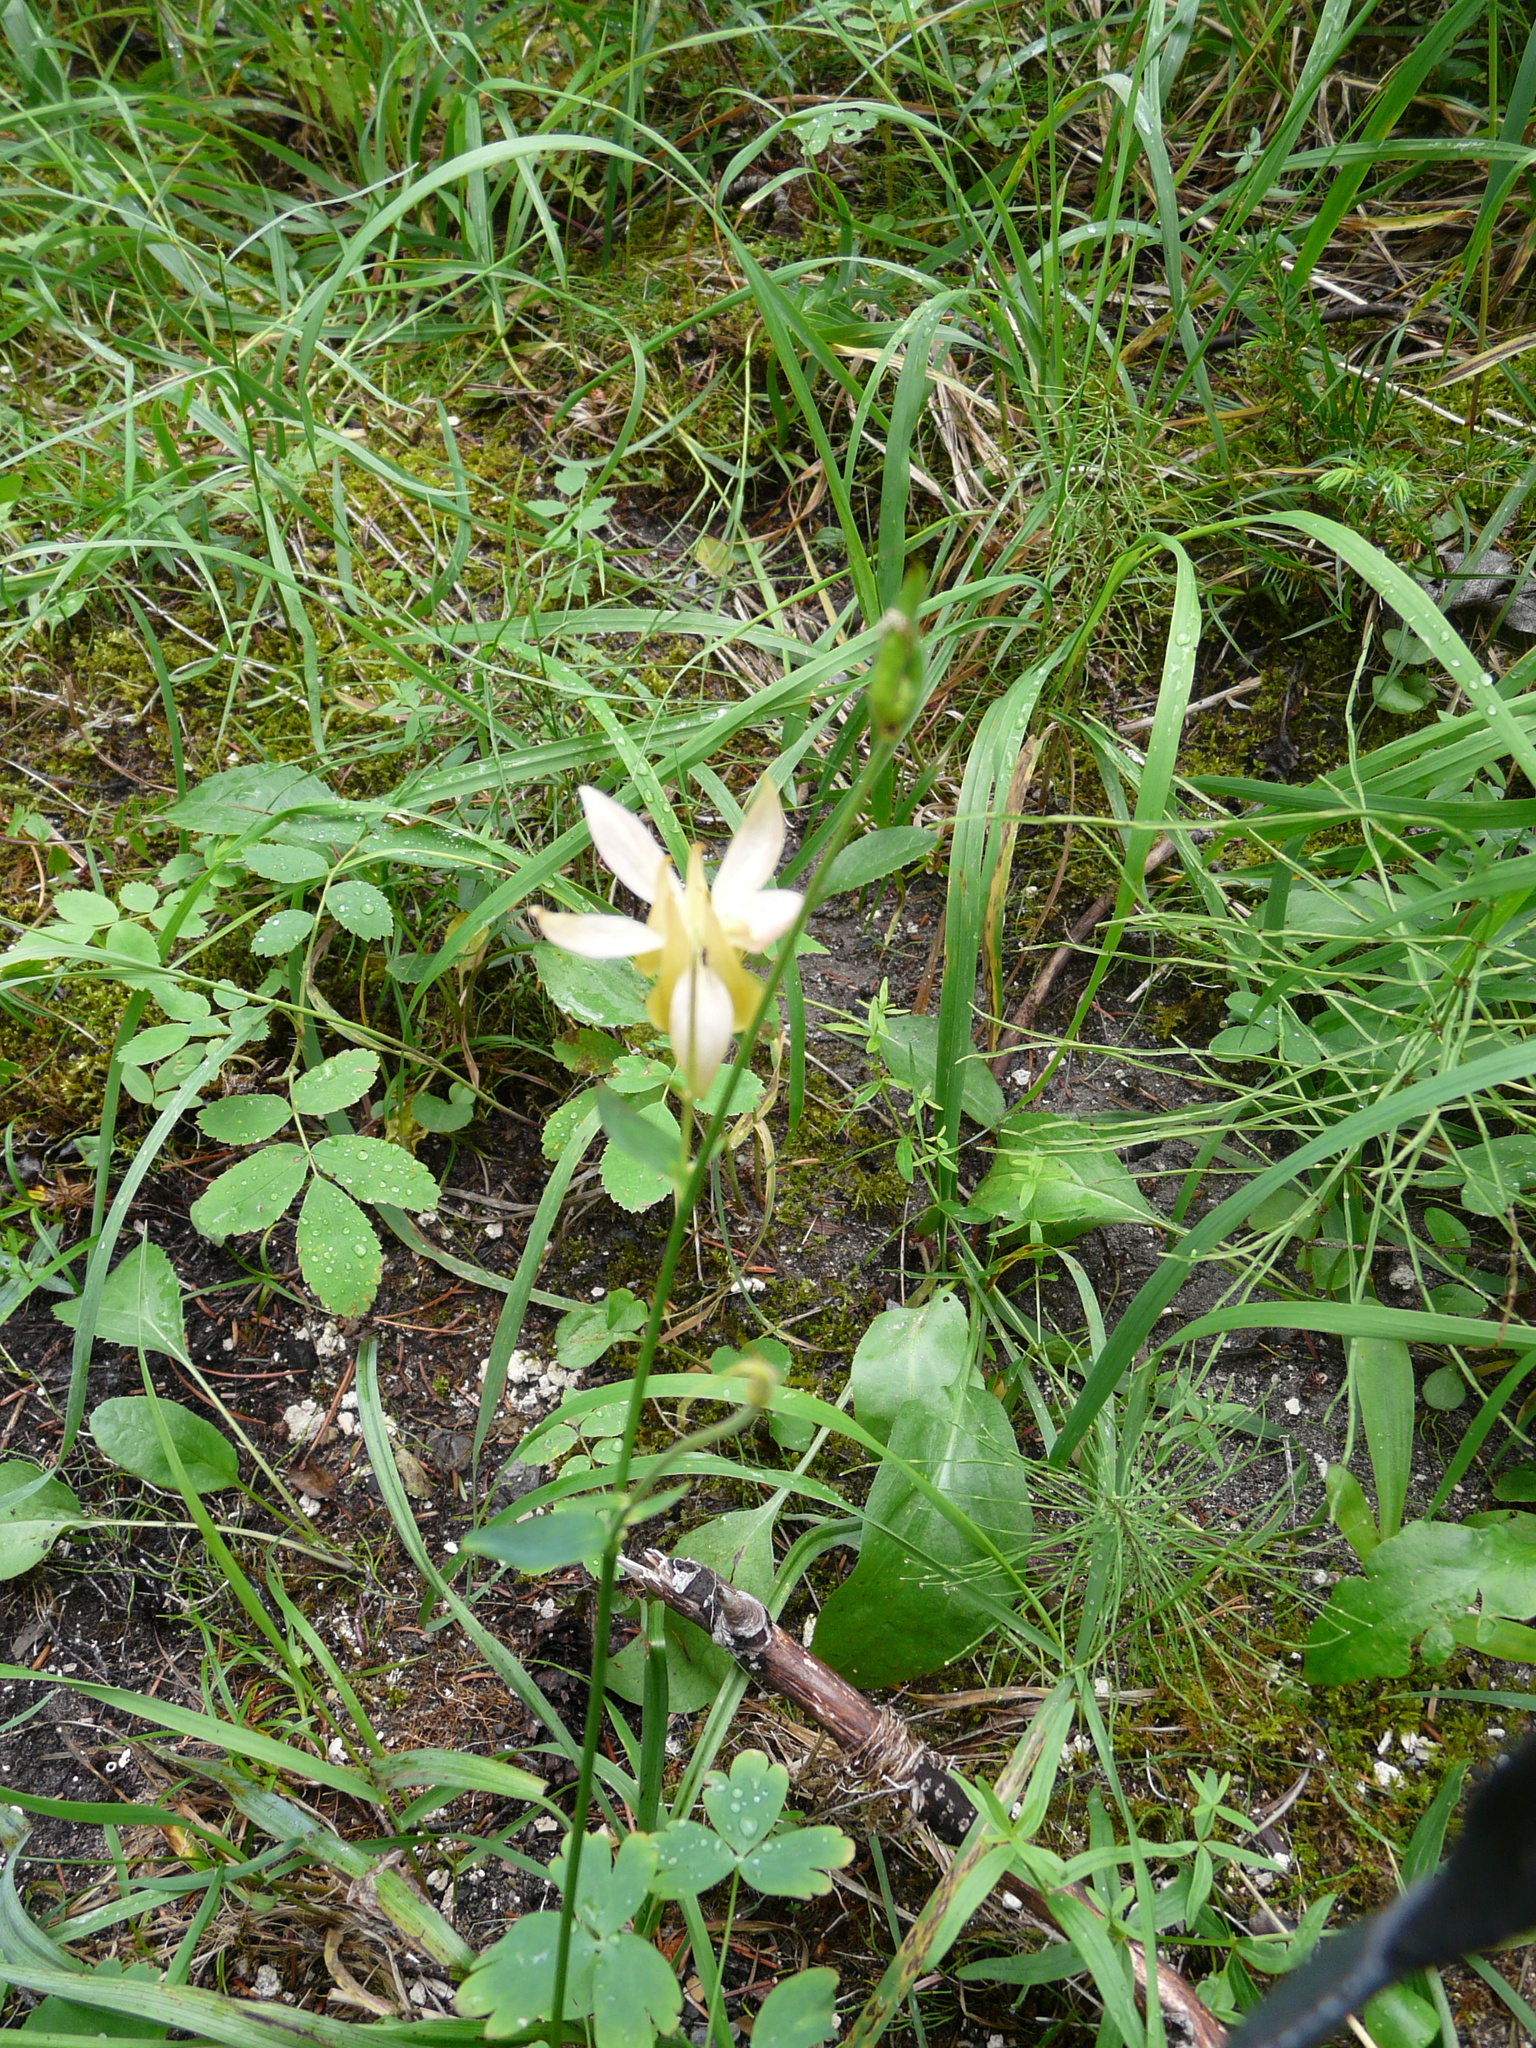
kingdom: Plantae
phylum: Tracheophyta
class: Magnoliopsida
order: Ranunculales
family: Ranunculaceae
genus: Aquilegia
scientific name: Aquilegia flavescens
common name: Yellow columbine
